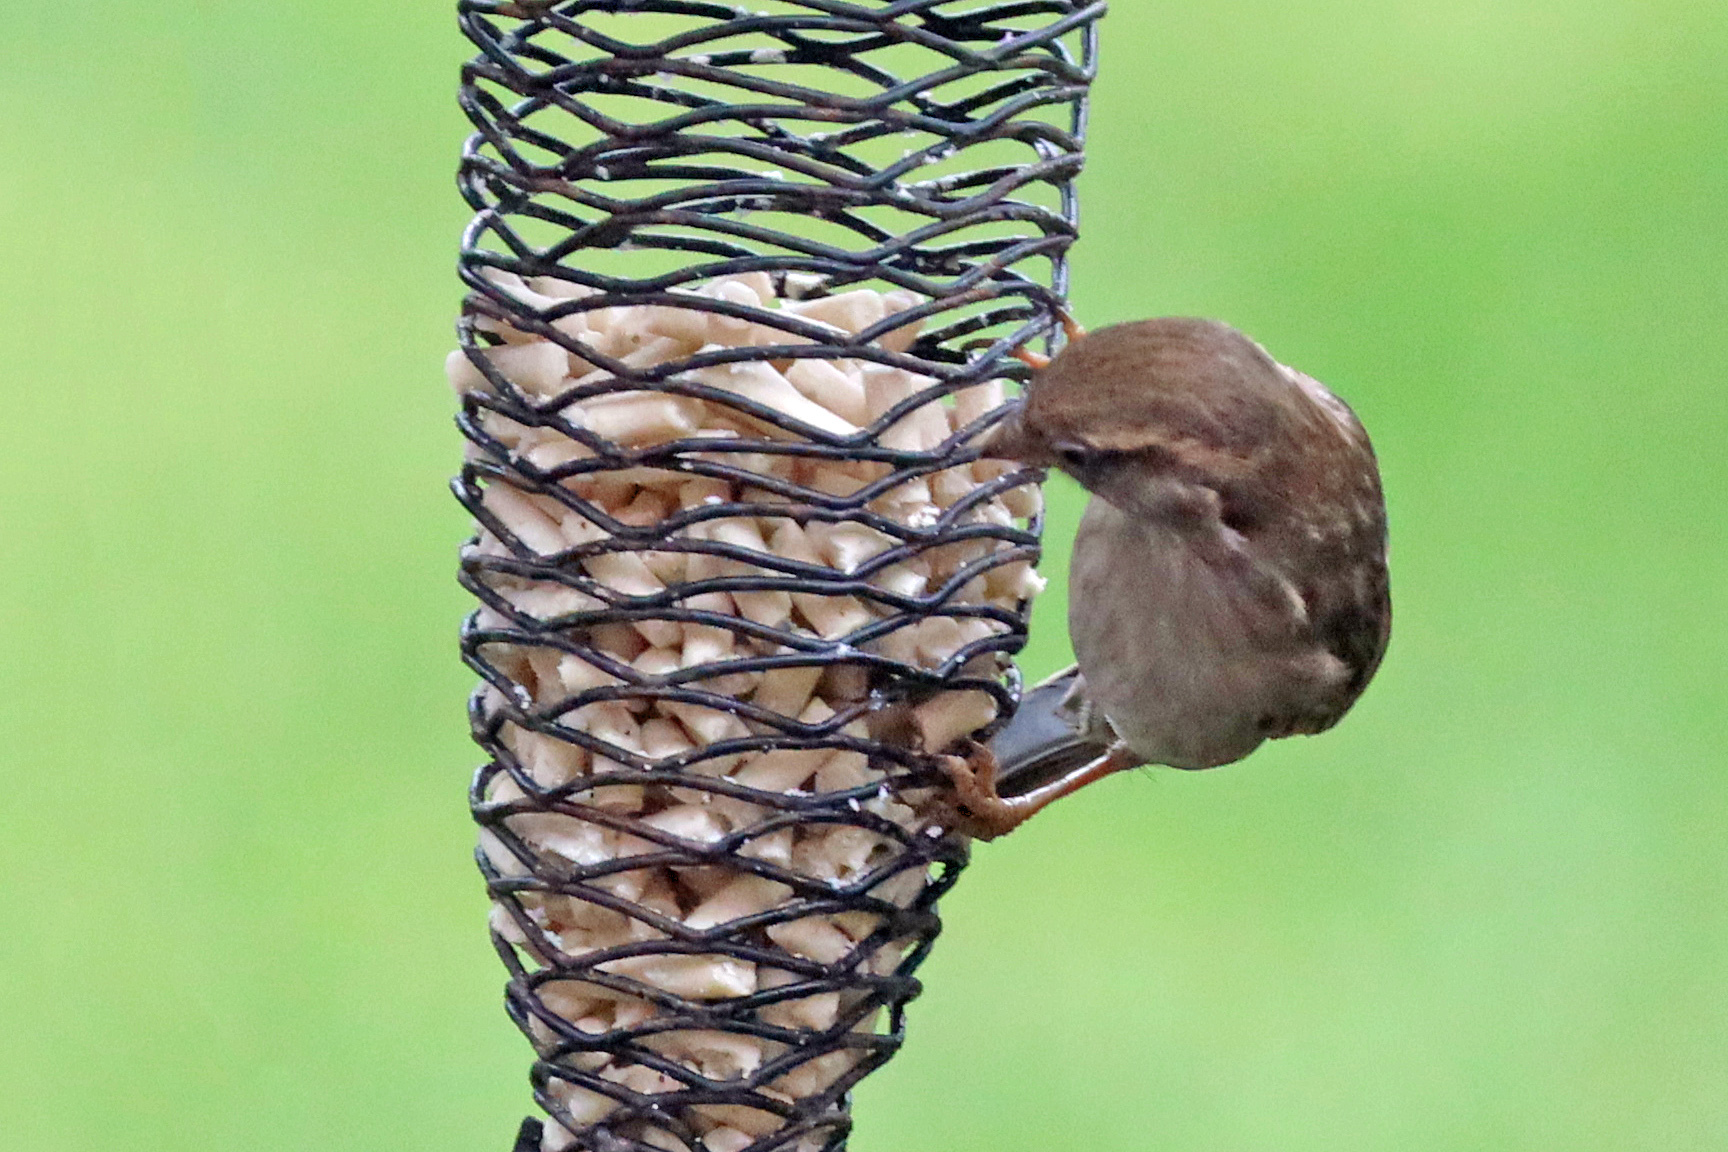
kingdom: Animalia
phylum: Chordata
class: Aves
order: Passeriformes
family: Passeridae
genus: Passer
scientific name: Passer domesticus
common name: House sparrow
